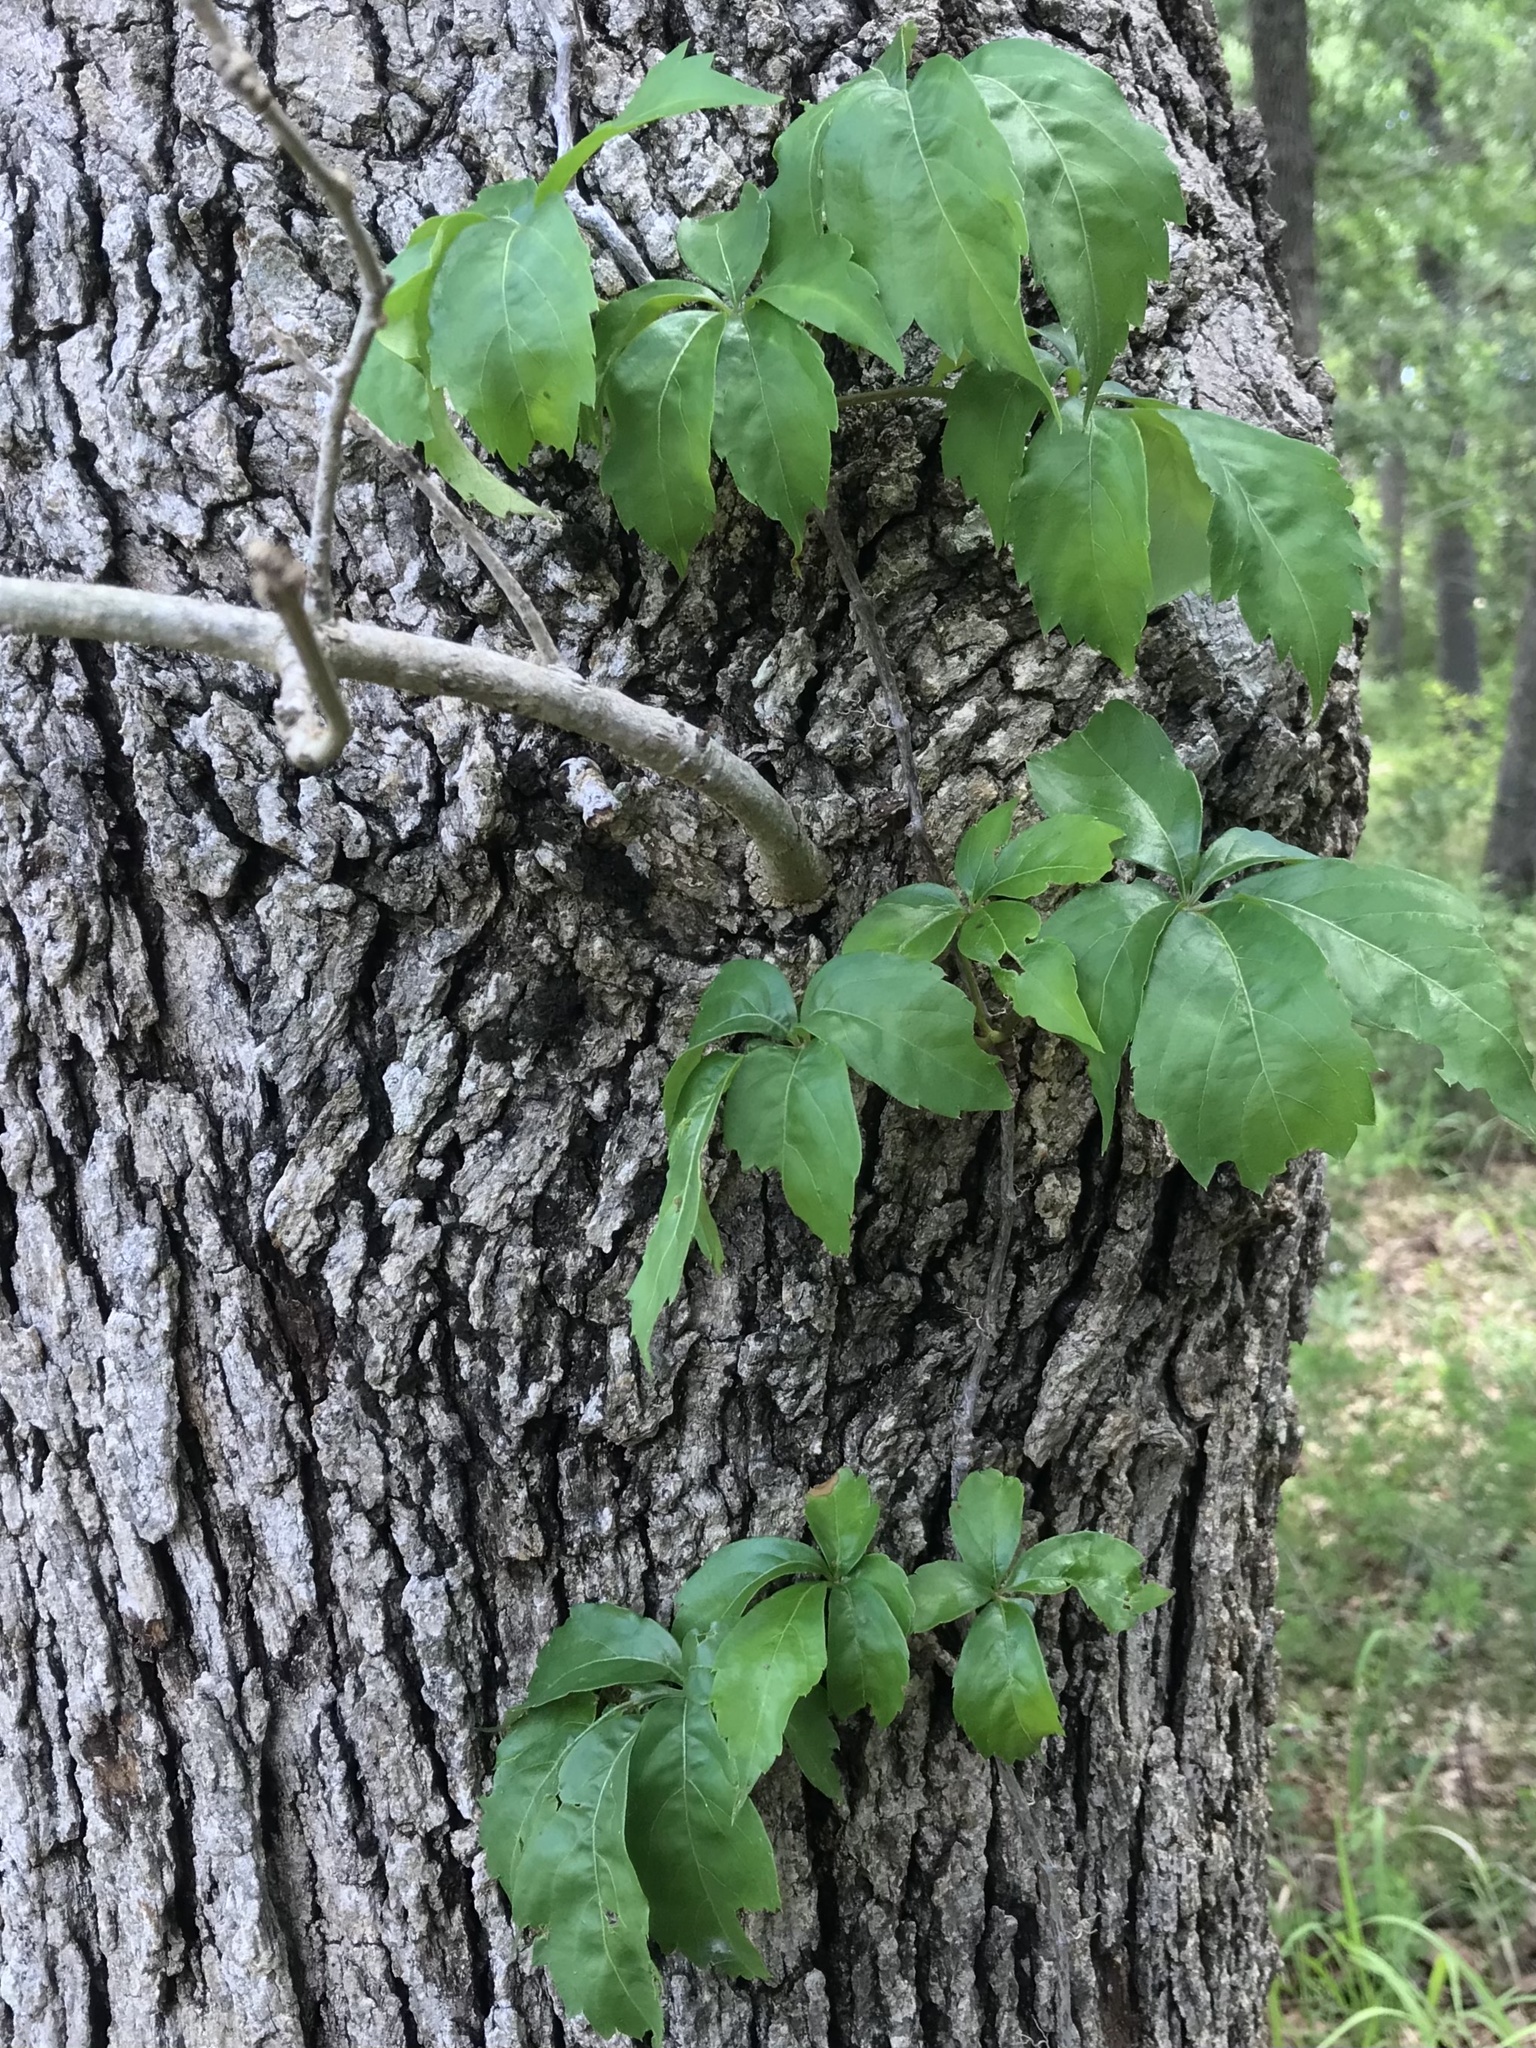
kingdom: Plantae
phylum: Tracheophyta
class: Magnoliopsida
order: Vitales
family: Vitaceae
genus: Parthenocissus
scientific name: Parthenocissus quinquefolia
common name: Virginia-creeper
